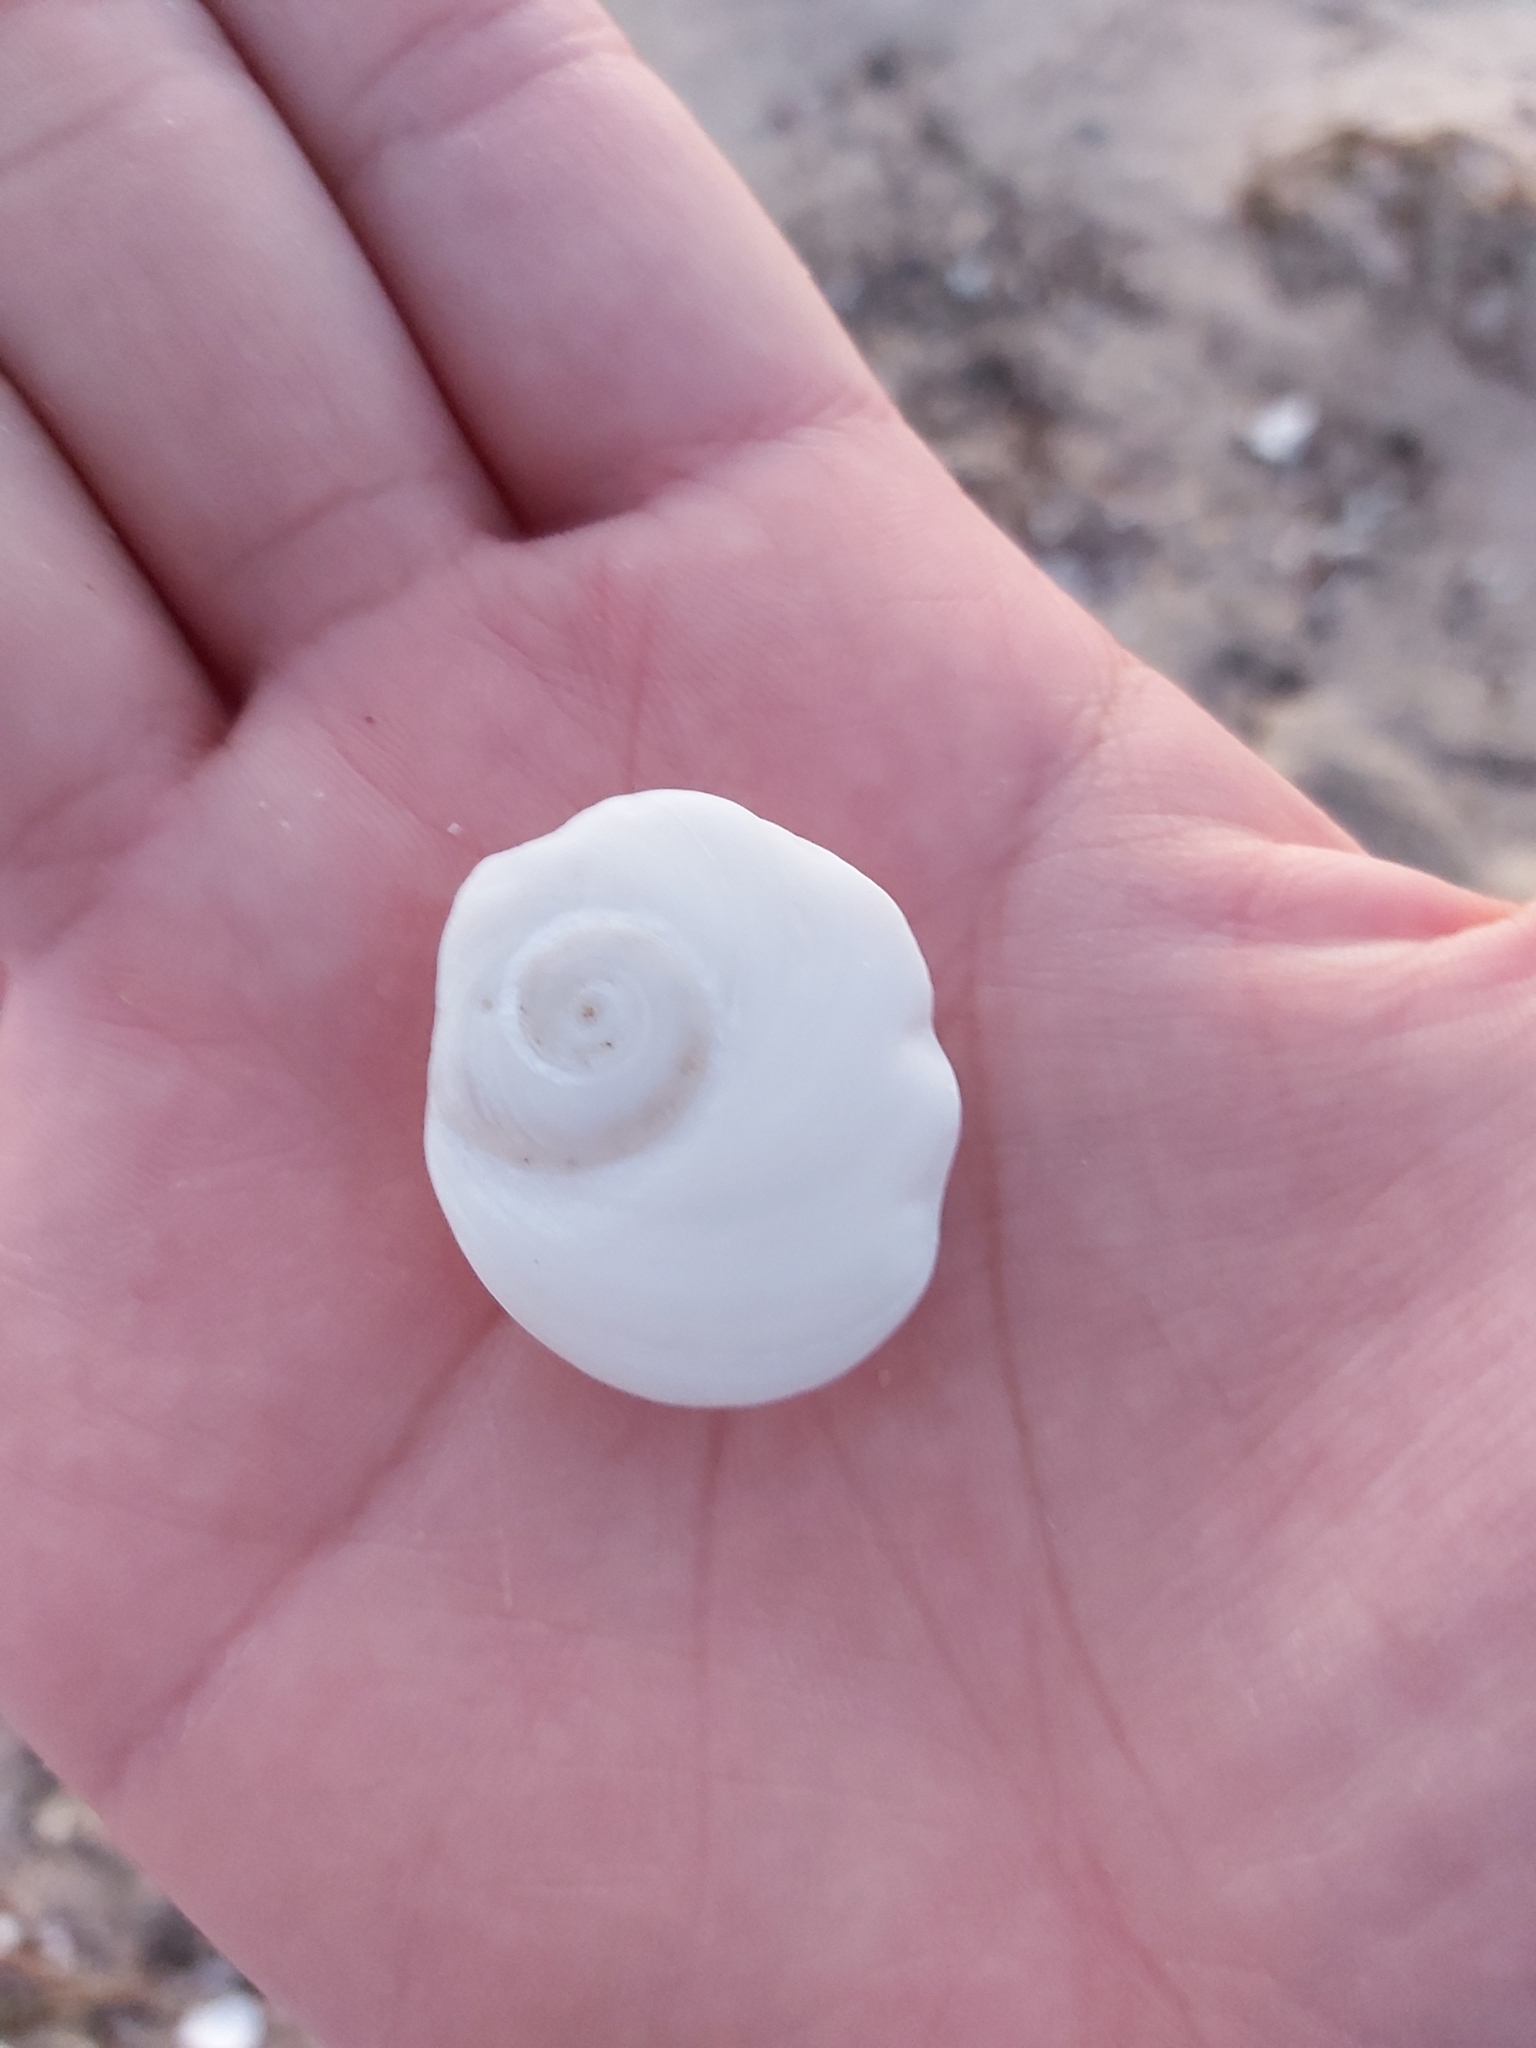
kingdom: Animalia
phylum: Mollusca
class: Gastropoda
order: Trochida
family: Turbinidae
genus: Lunella
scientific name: Lunella torquata
